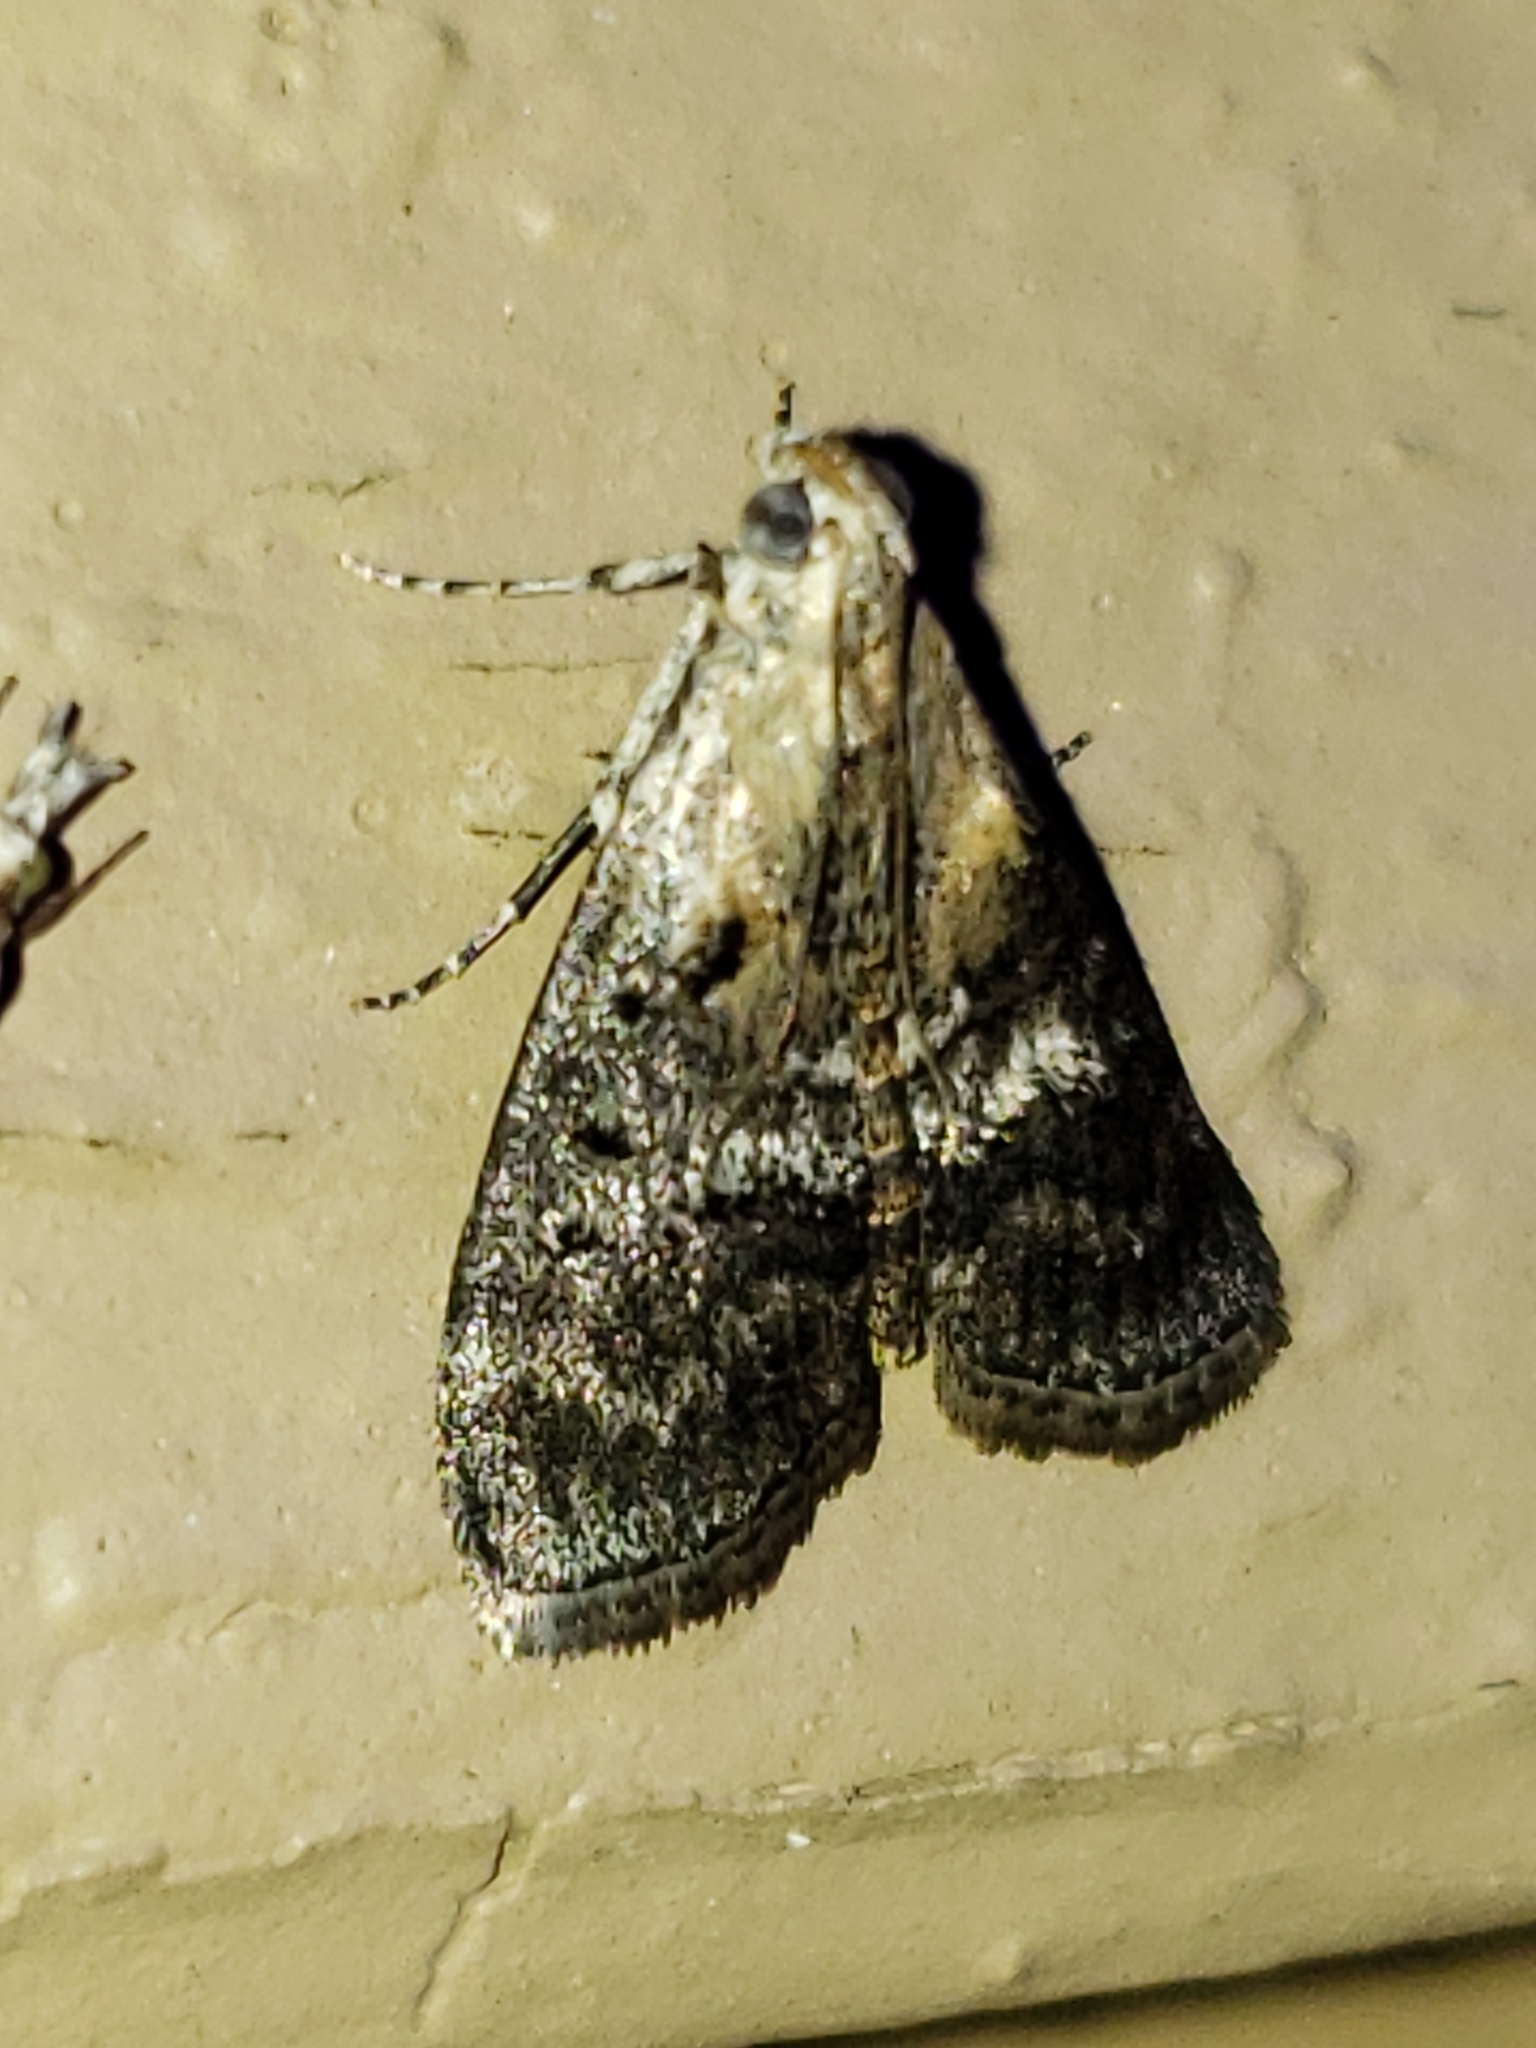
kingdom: Animalia
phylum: Arthropoda
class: Insecta
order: Lepidoptera
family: Pyralidae
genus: Pococera
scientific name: Pococera expandens
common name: Striped oak webworm moth
